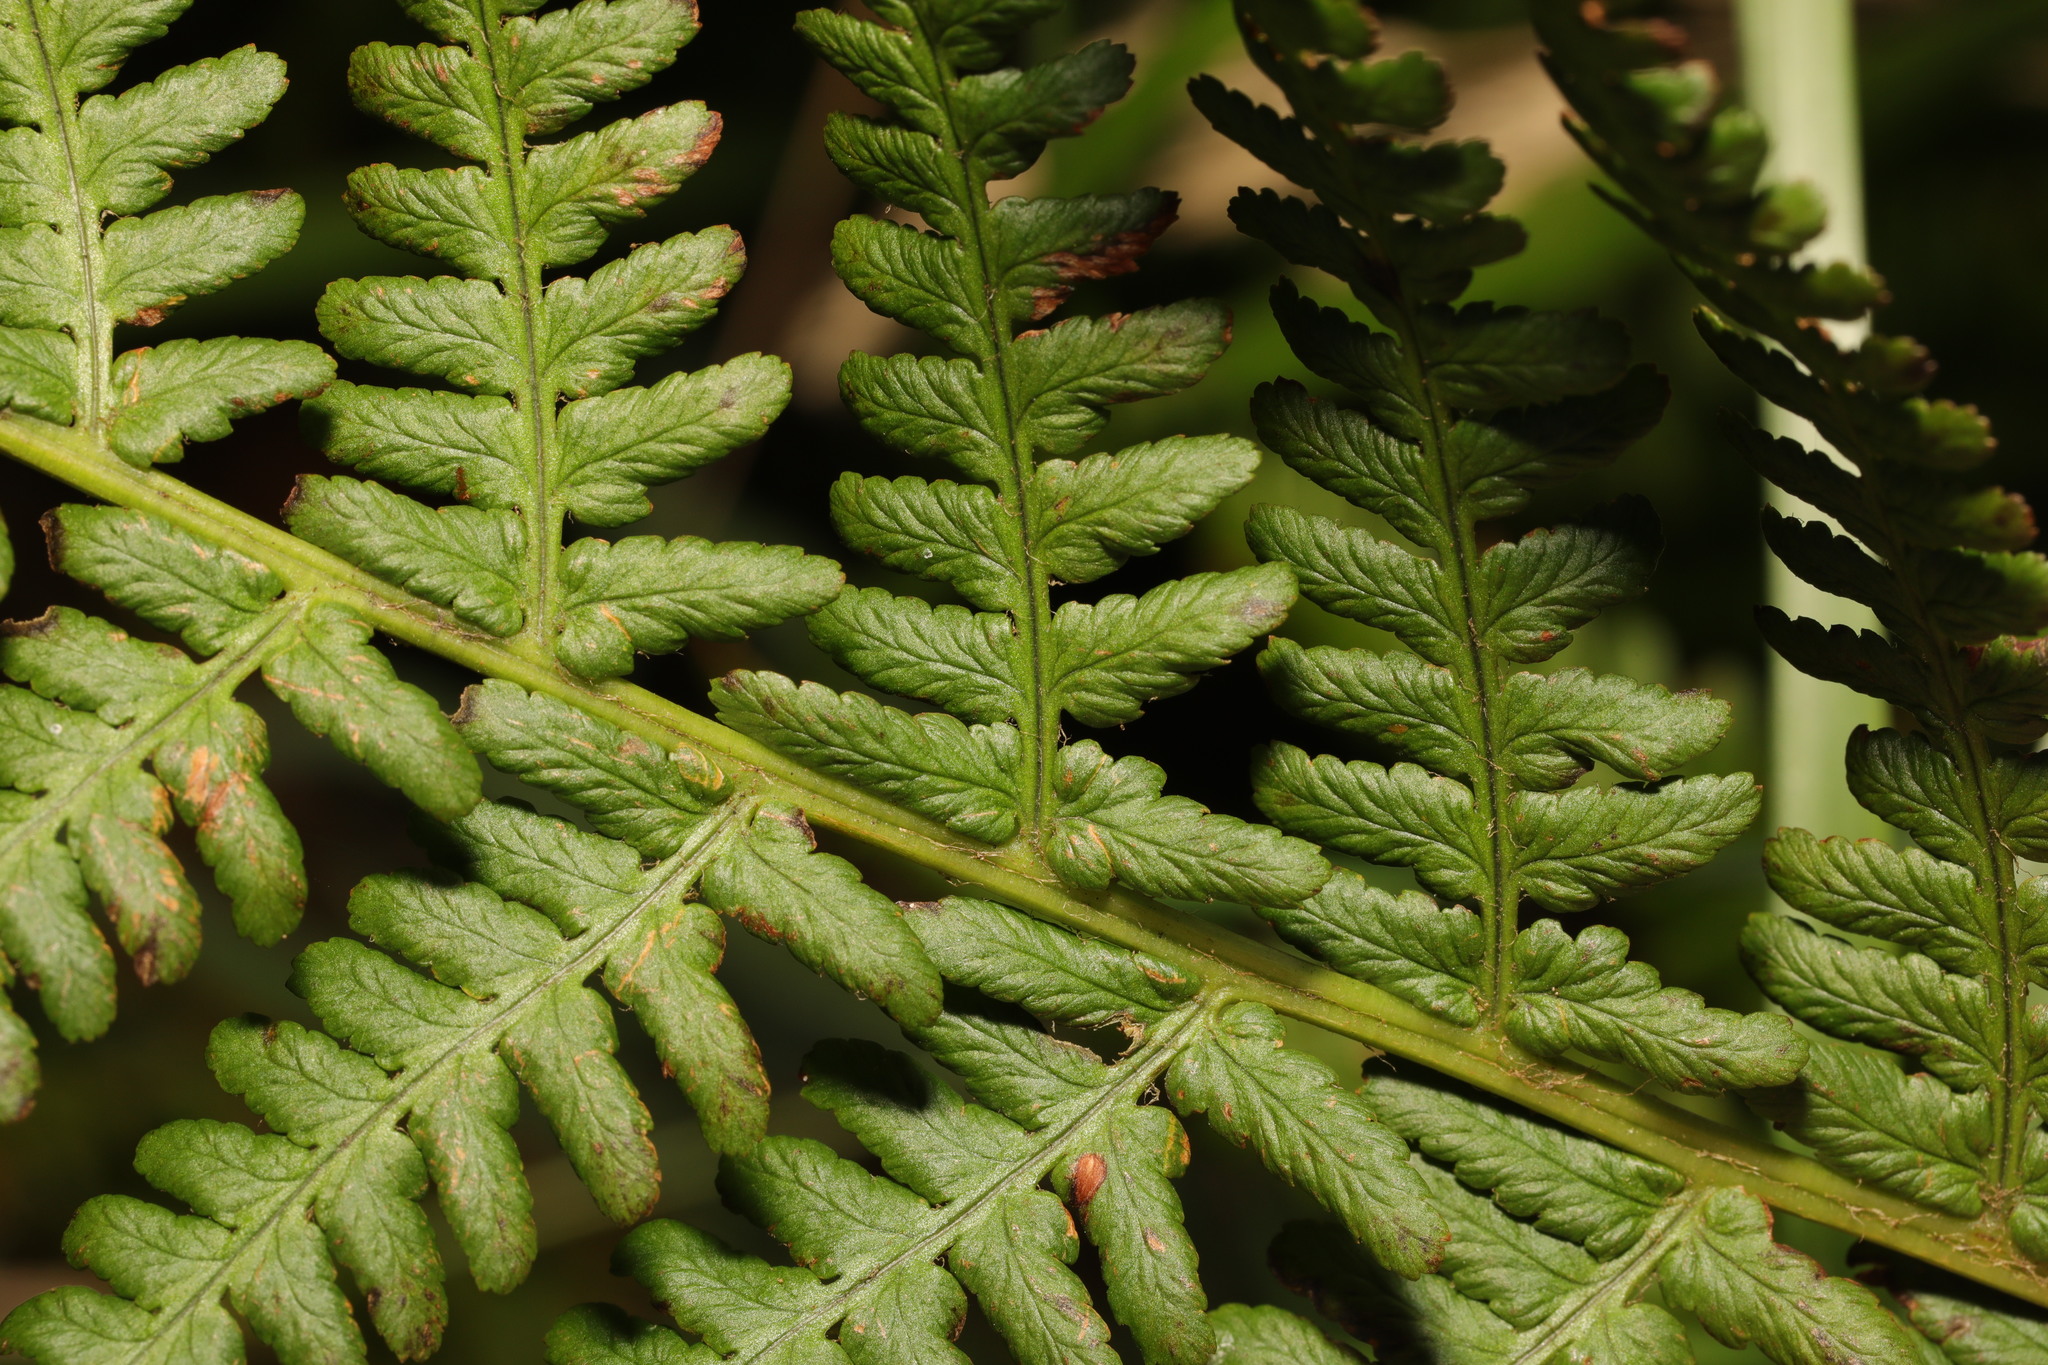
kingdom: Plantae
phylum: Tracheophyta
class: Polypodiopsida
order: Polypodiales
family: Dryopteridaceae
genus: Dryopteris
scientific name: Dryopteris filix-mas
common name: Male fern
